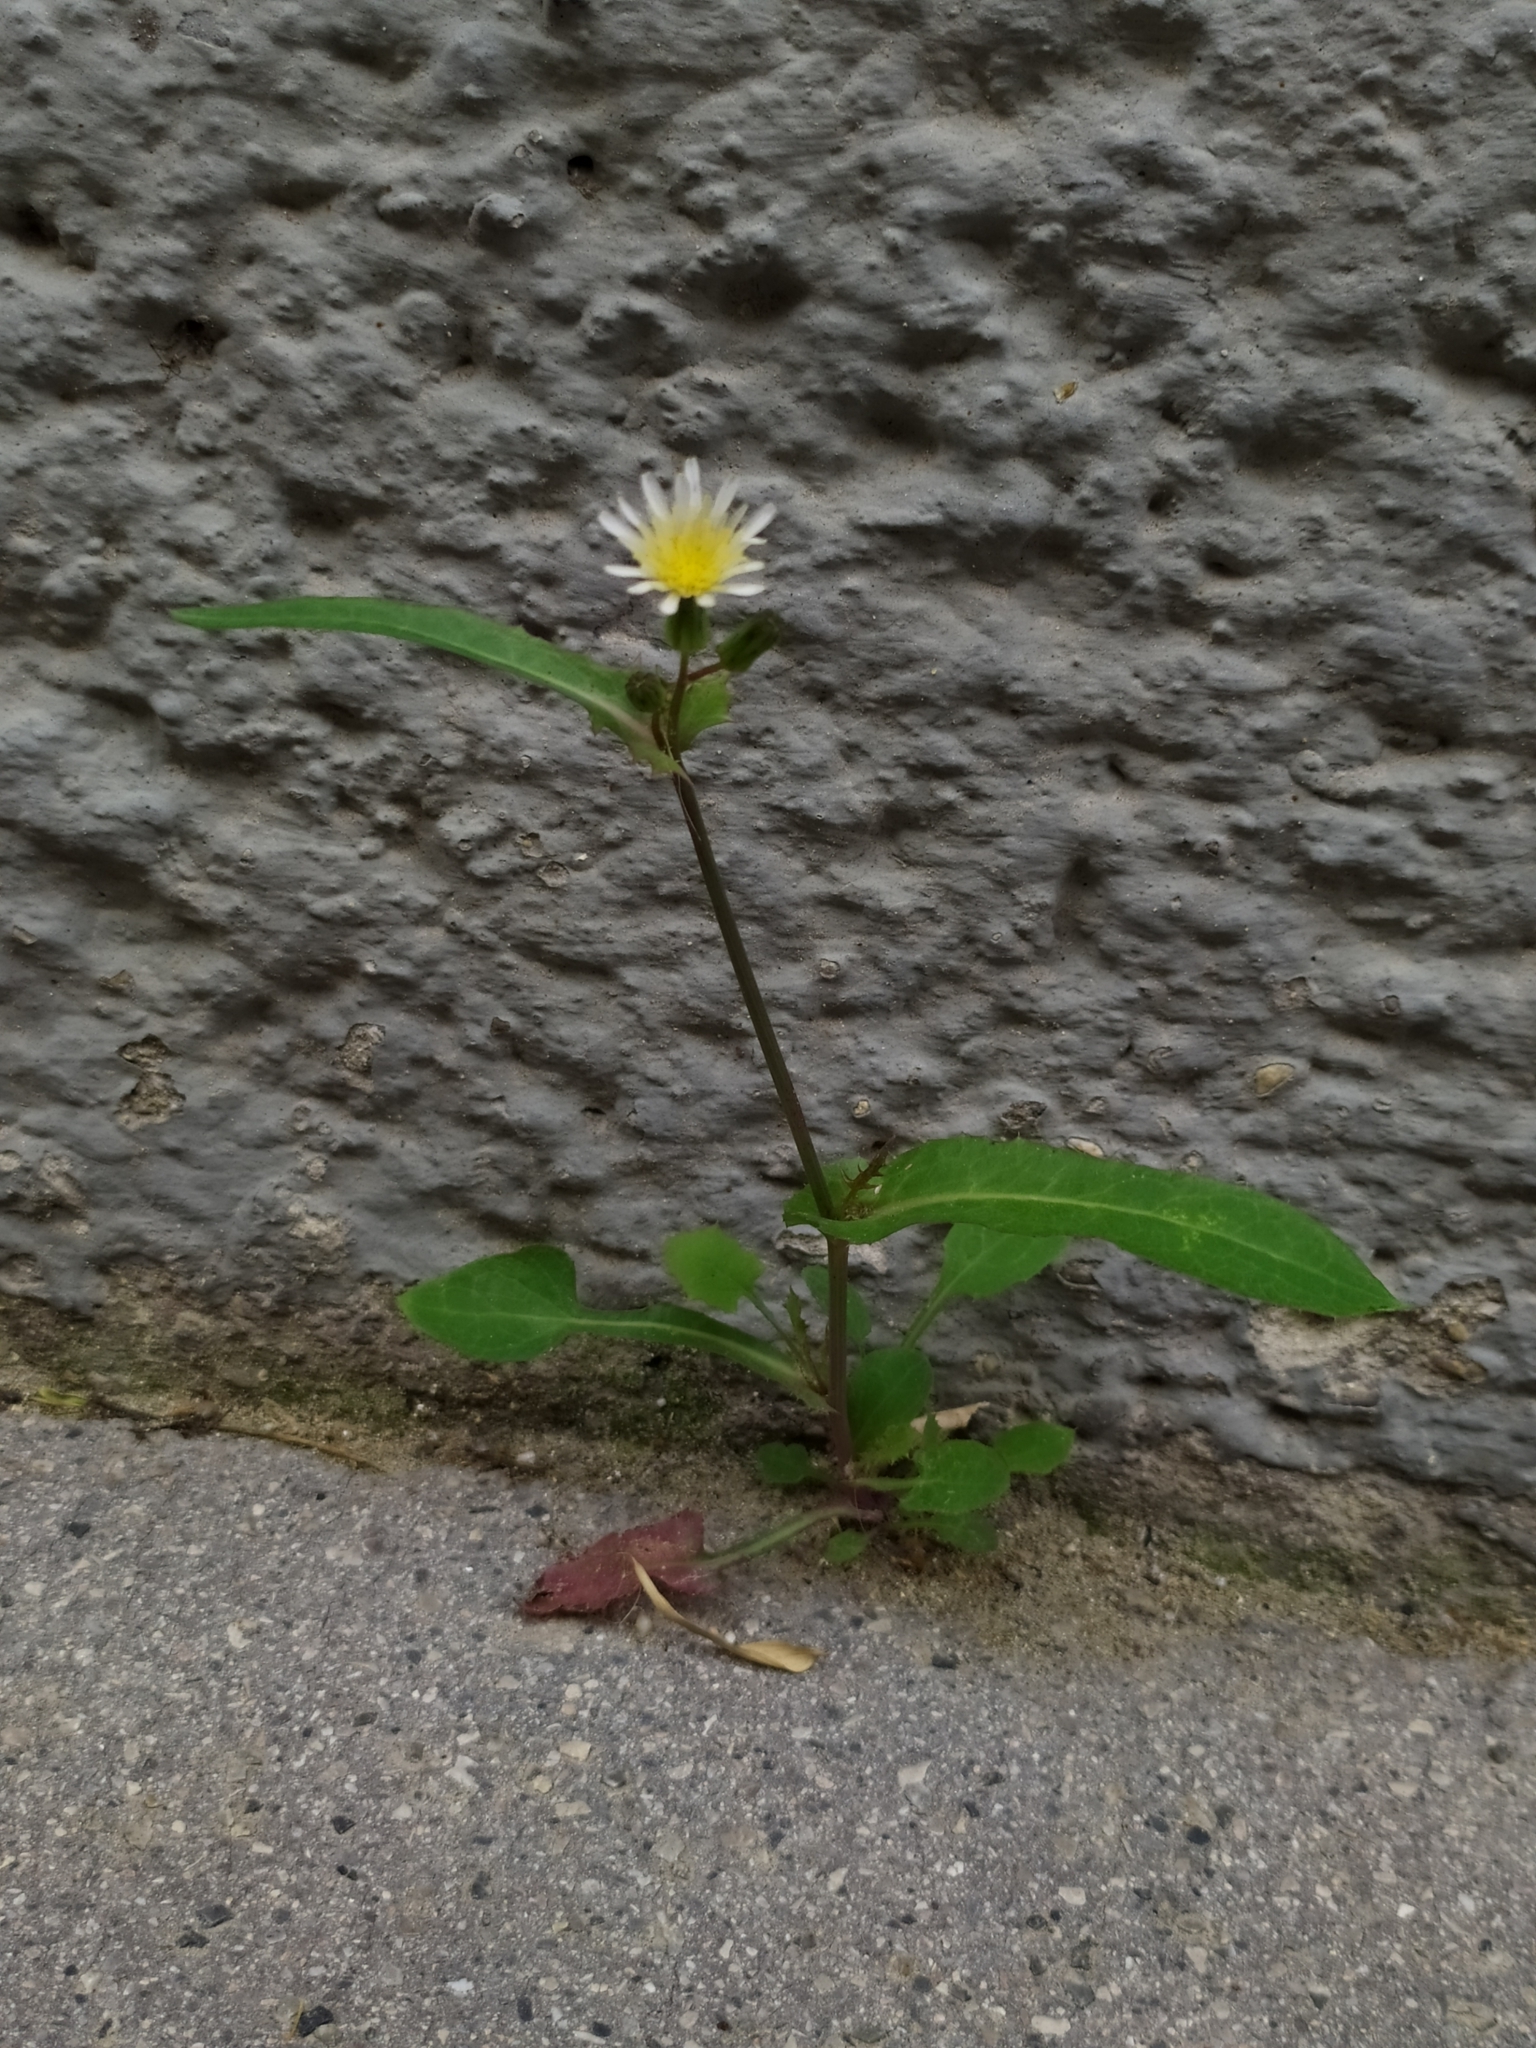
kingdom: Plantae
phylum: Tracheophyta
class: Magnoliopsida
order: Asterales
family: Asteraceae
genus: Sonchus
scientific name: Sonchus oleraceus
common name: Common sowthistle
